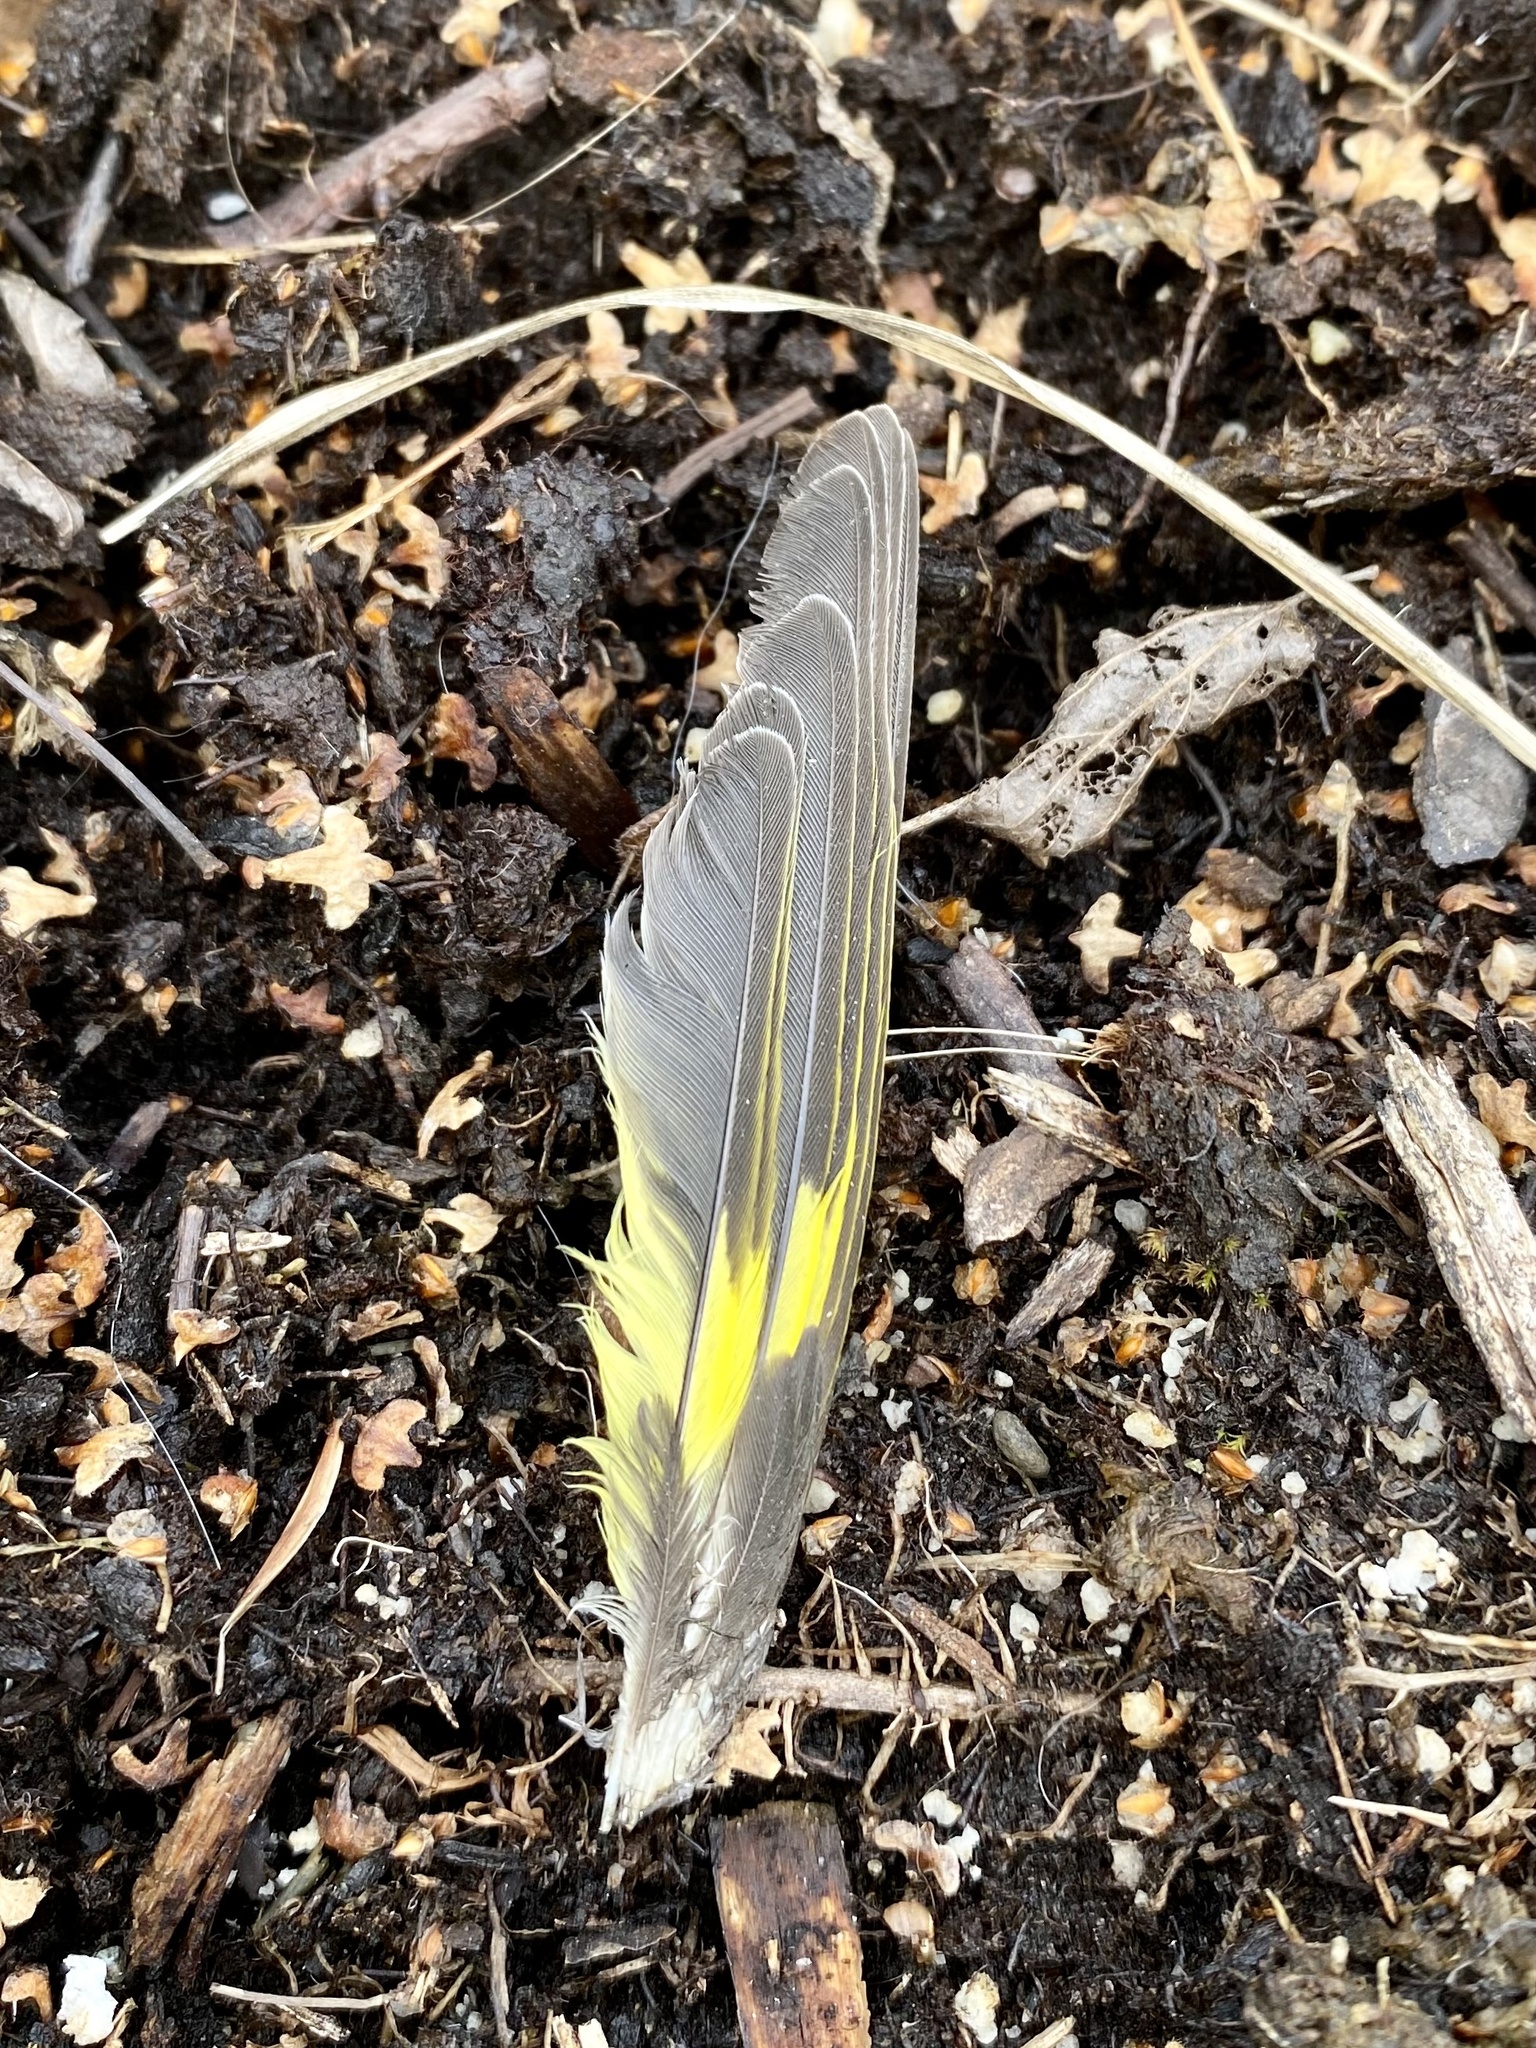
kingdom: Animalia
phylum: Chordata
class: Aves
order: Passeriformes
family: Fringillidae
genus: Spinus
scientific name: Spinus pinus
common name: Pine siskin
